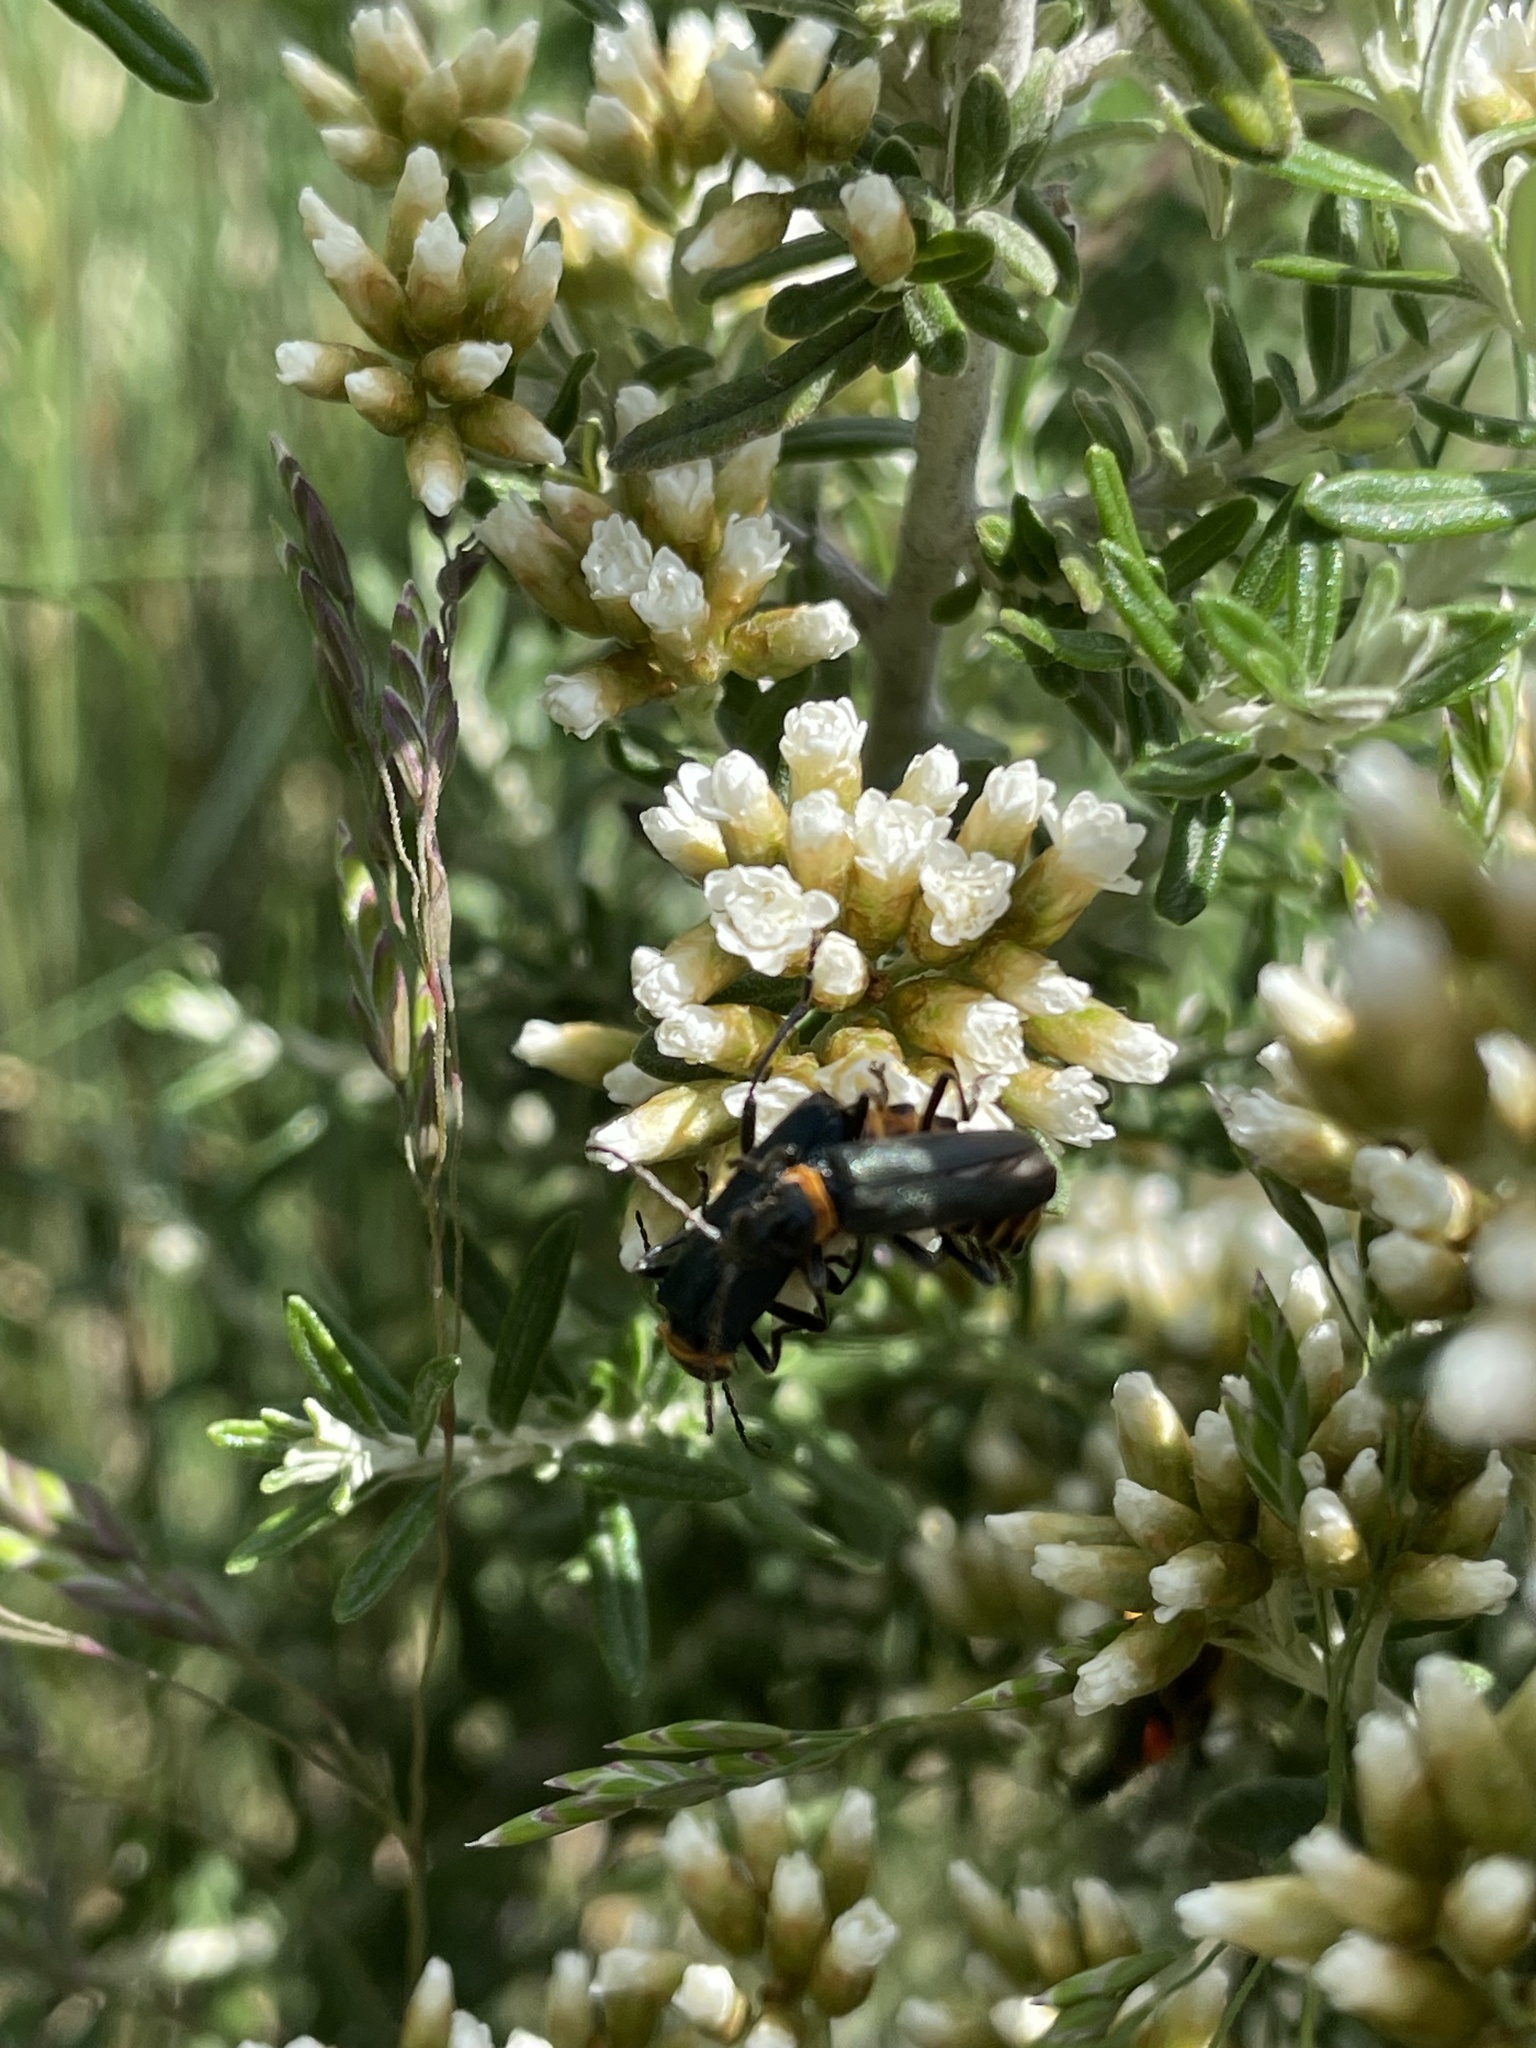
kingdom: Animalia
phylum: Arthropoda
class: Insecta
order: Coleoptera
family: Cantharidae
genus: Chauliognathus
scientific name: Chauliognathus
